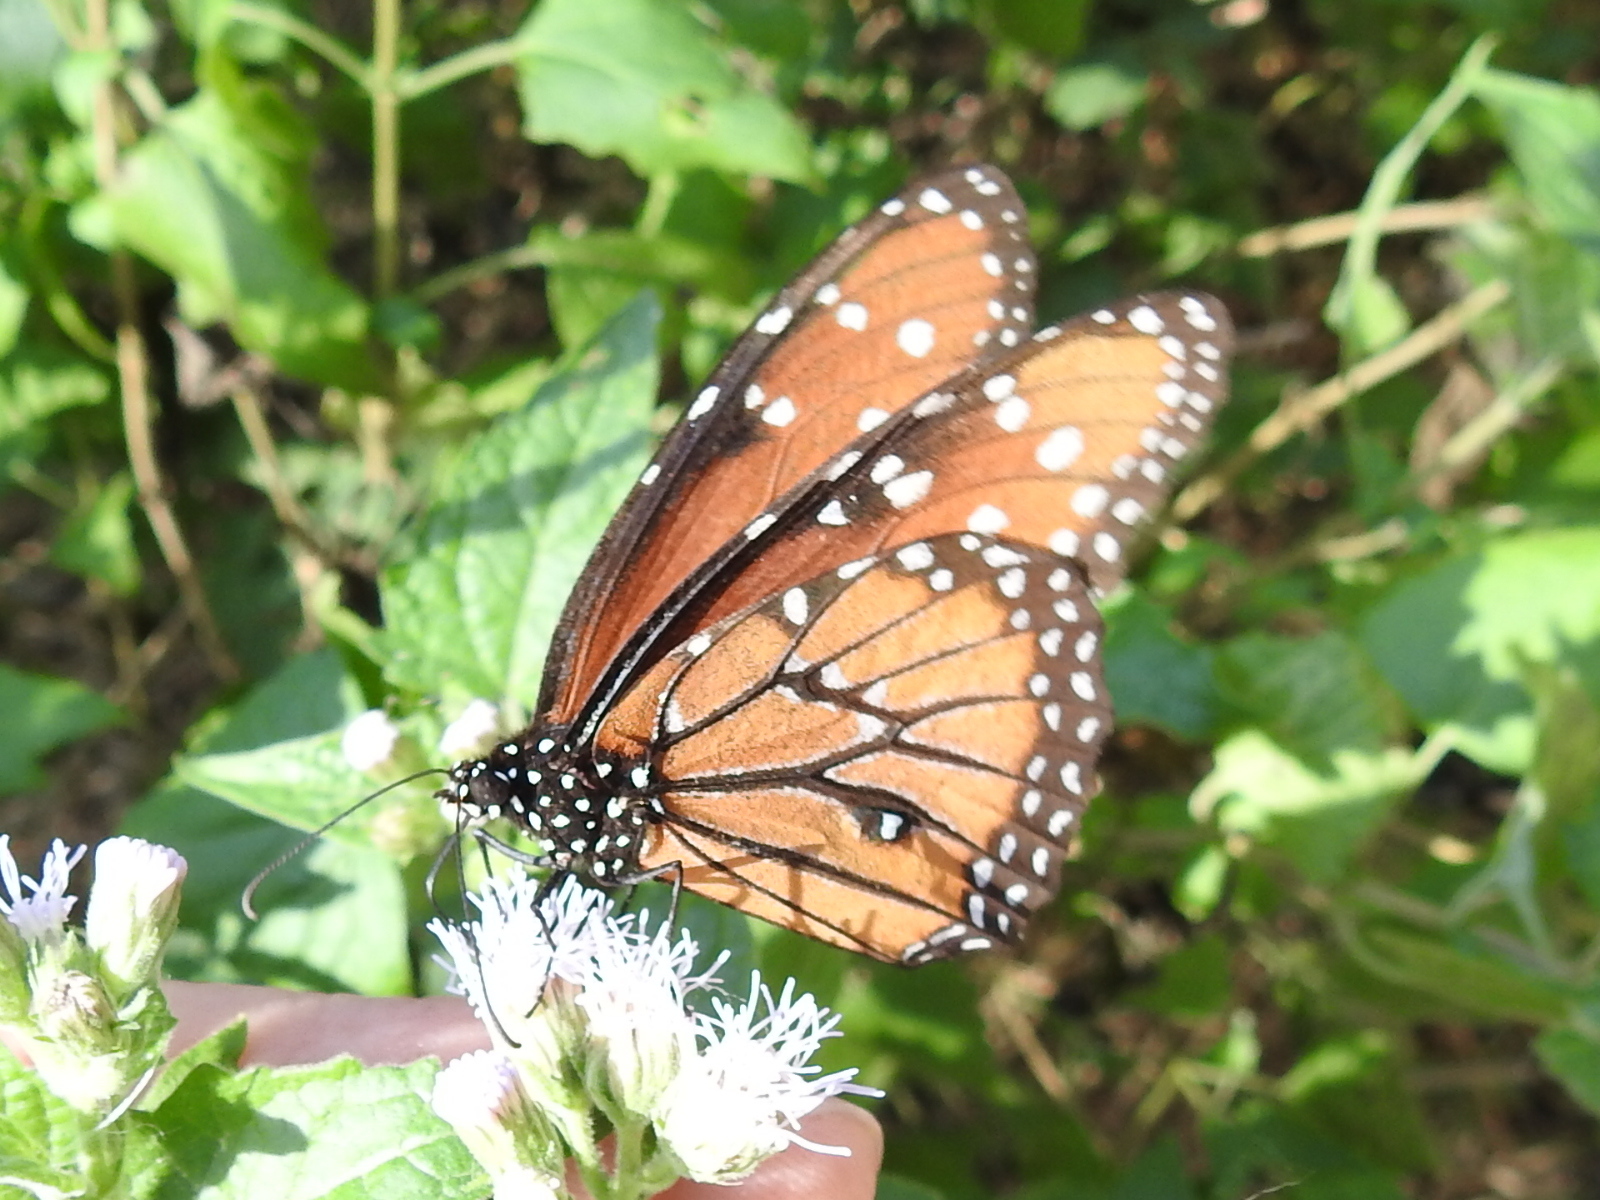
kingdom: Animalia
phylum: Arthropoda
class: Insecta
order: Lepidoptera
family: Nymphalidae
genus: Danaus
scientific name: Danaus gilippus
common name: Queen
